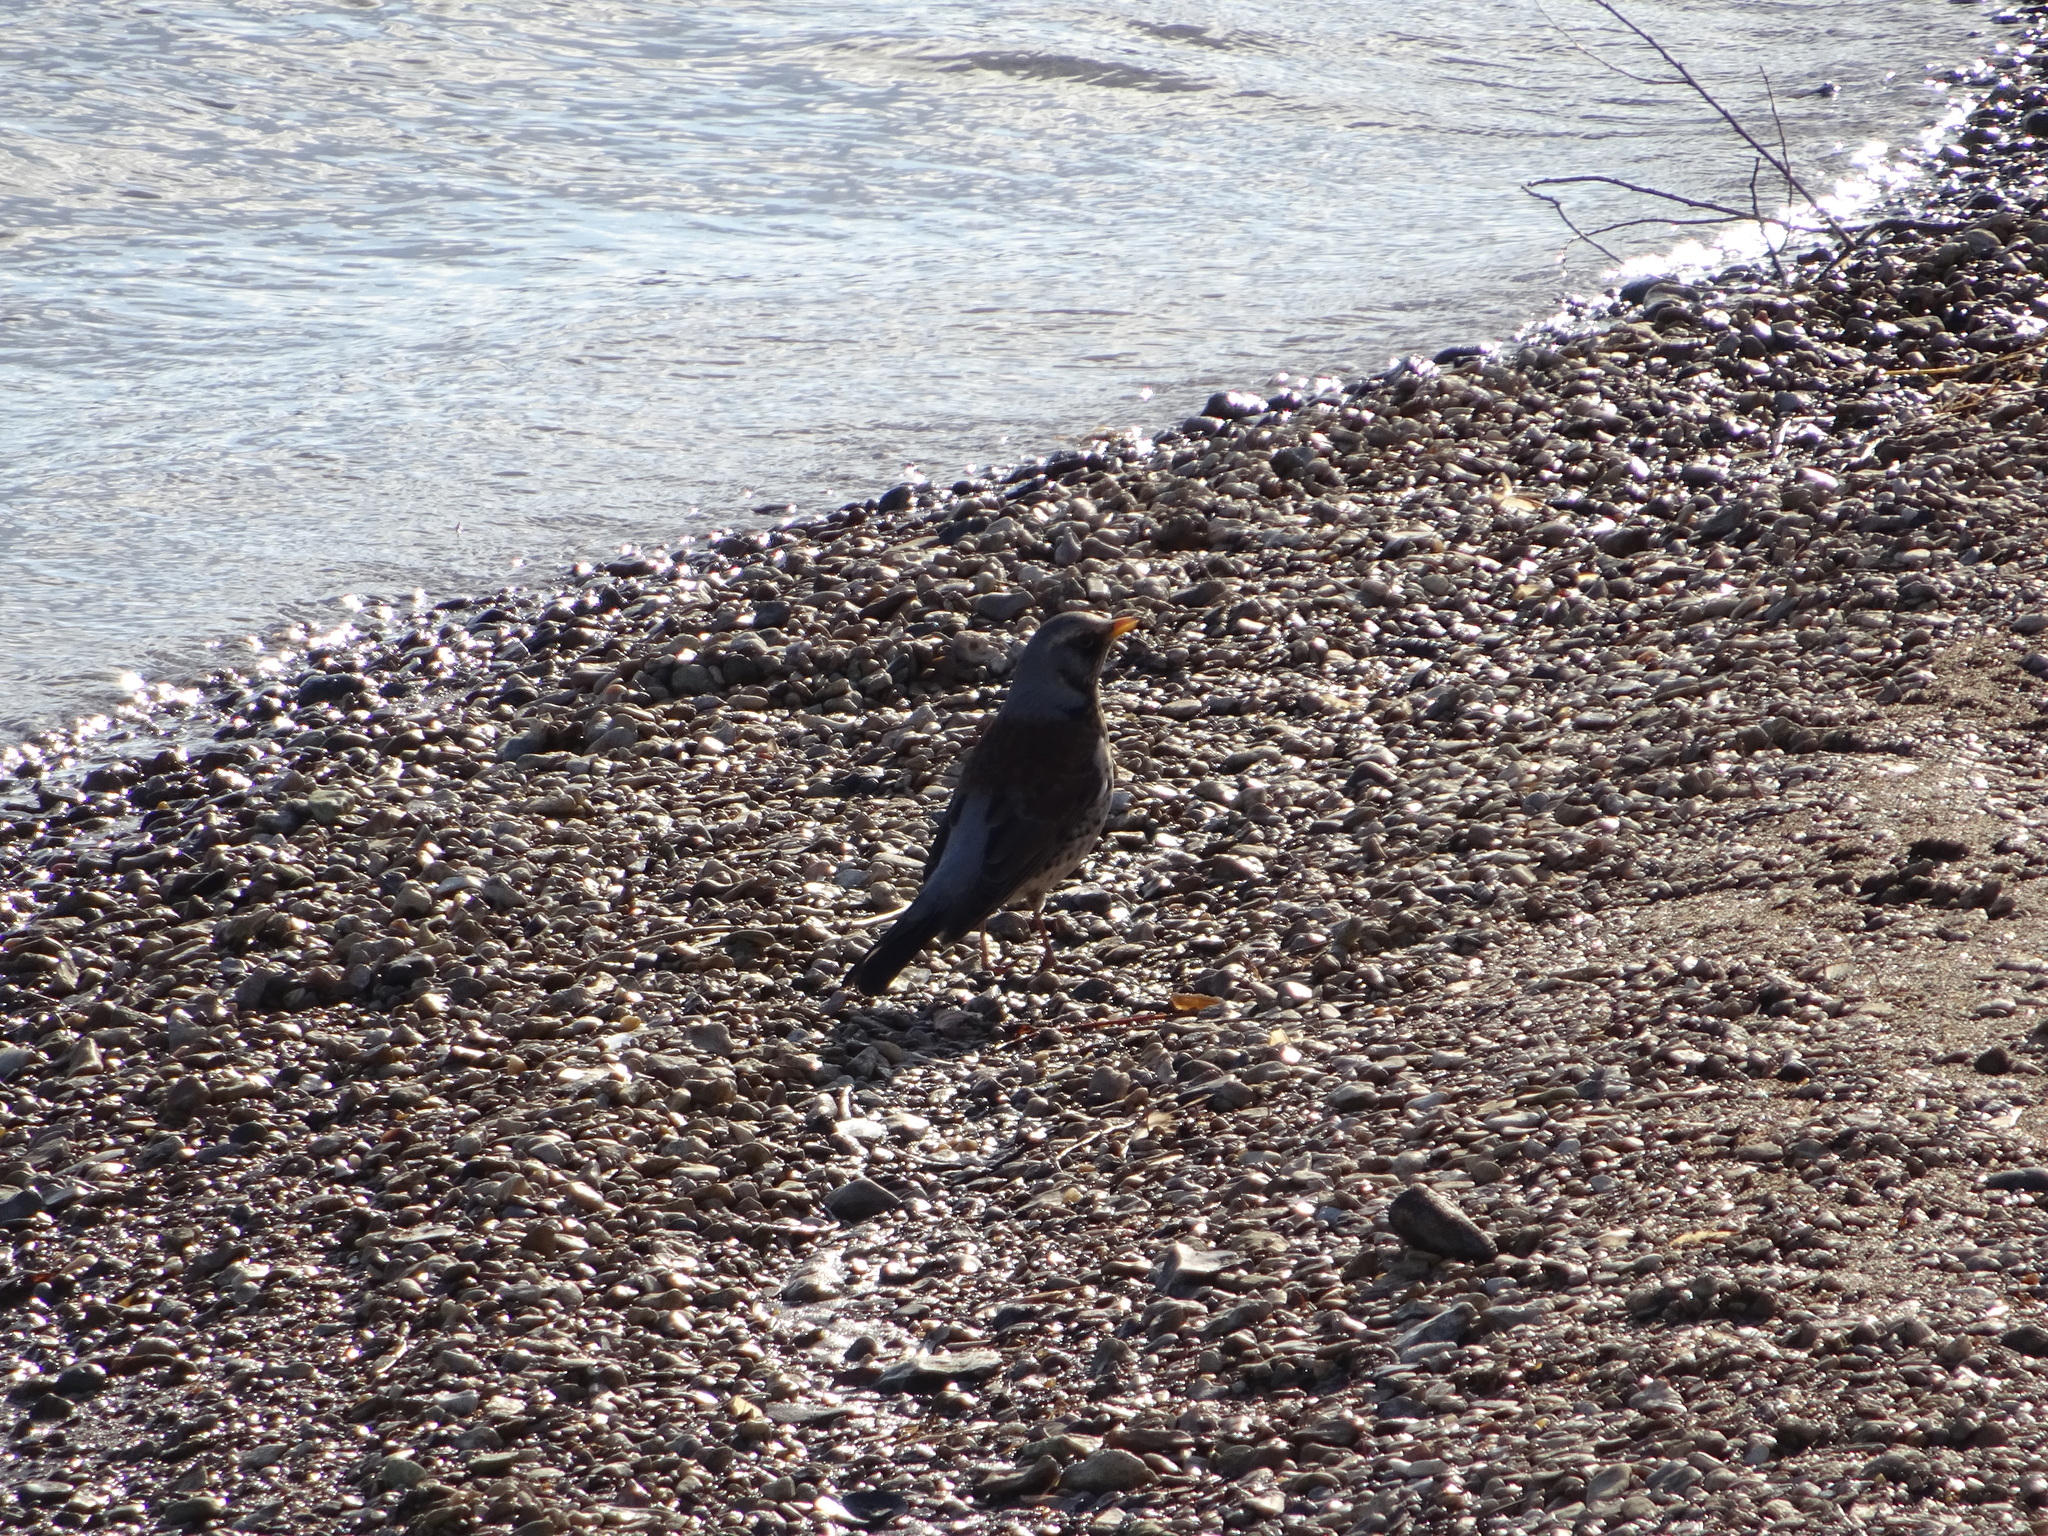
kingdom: Animalia
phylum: Chordata
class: Aves
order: Passeriformes
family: Turdidae
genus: Turdus
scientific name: Turdus pilaris
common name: Fieldfare
